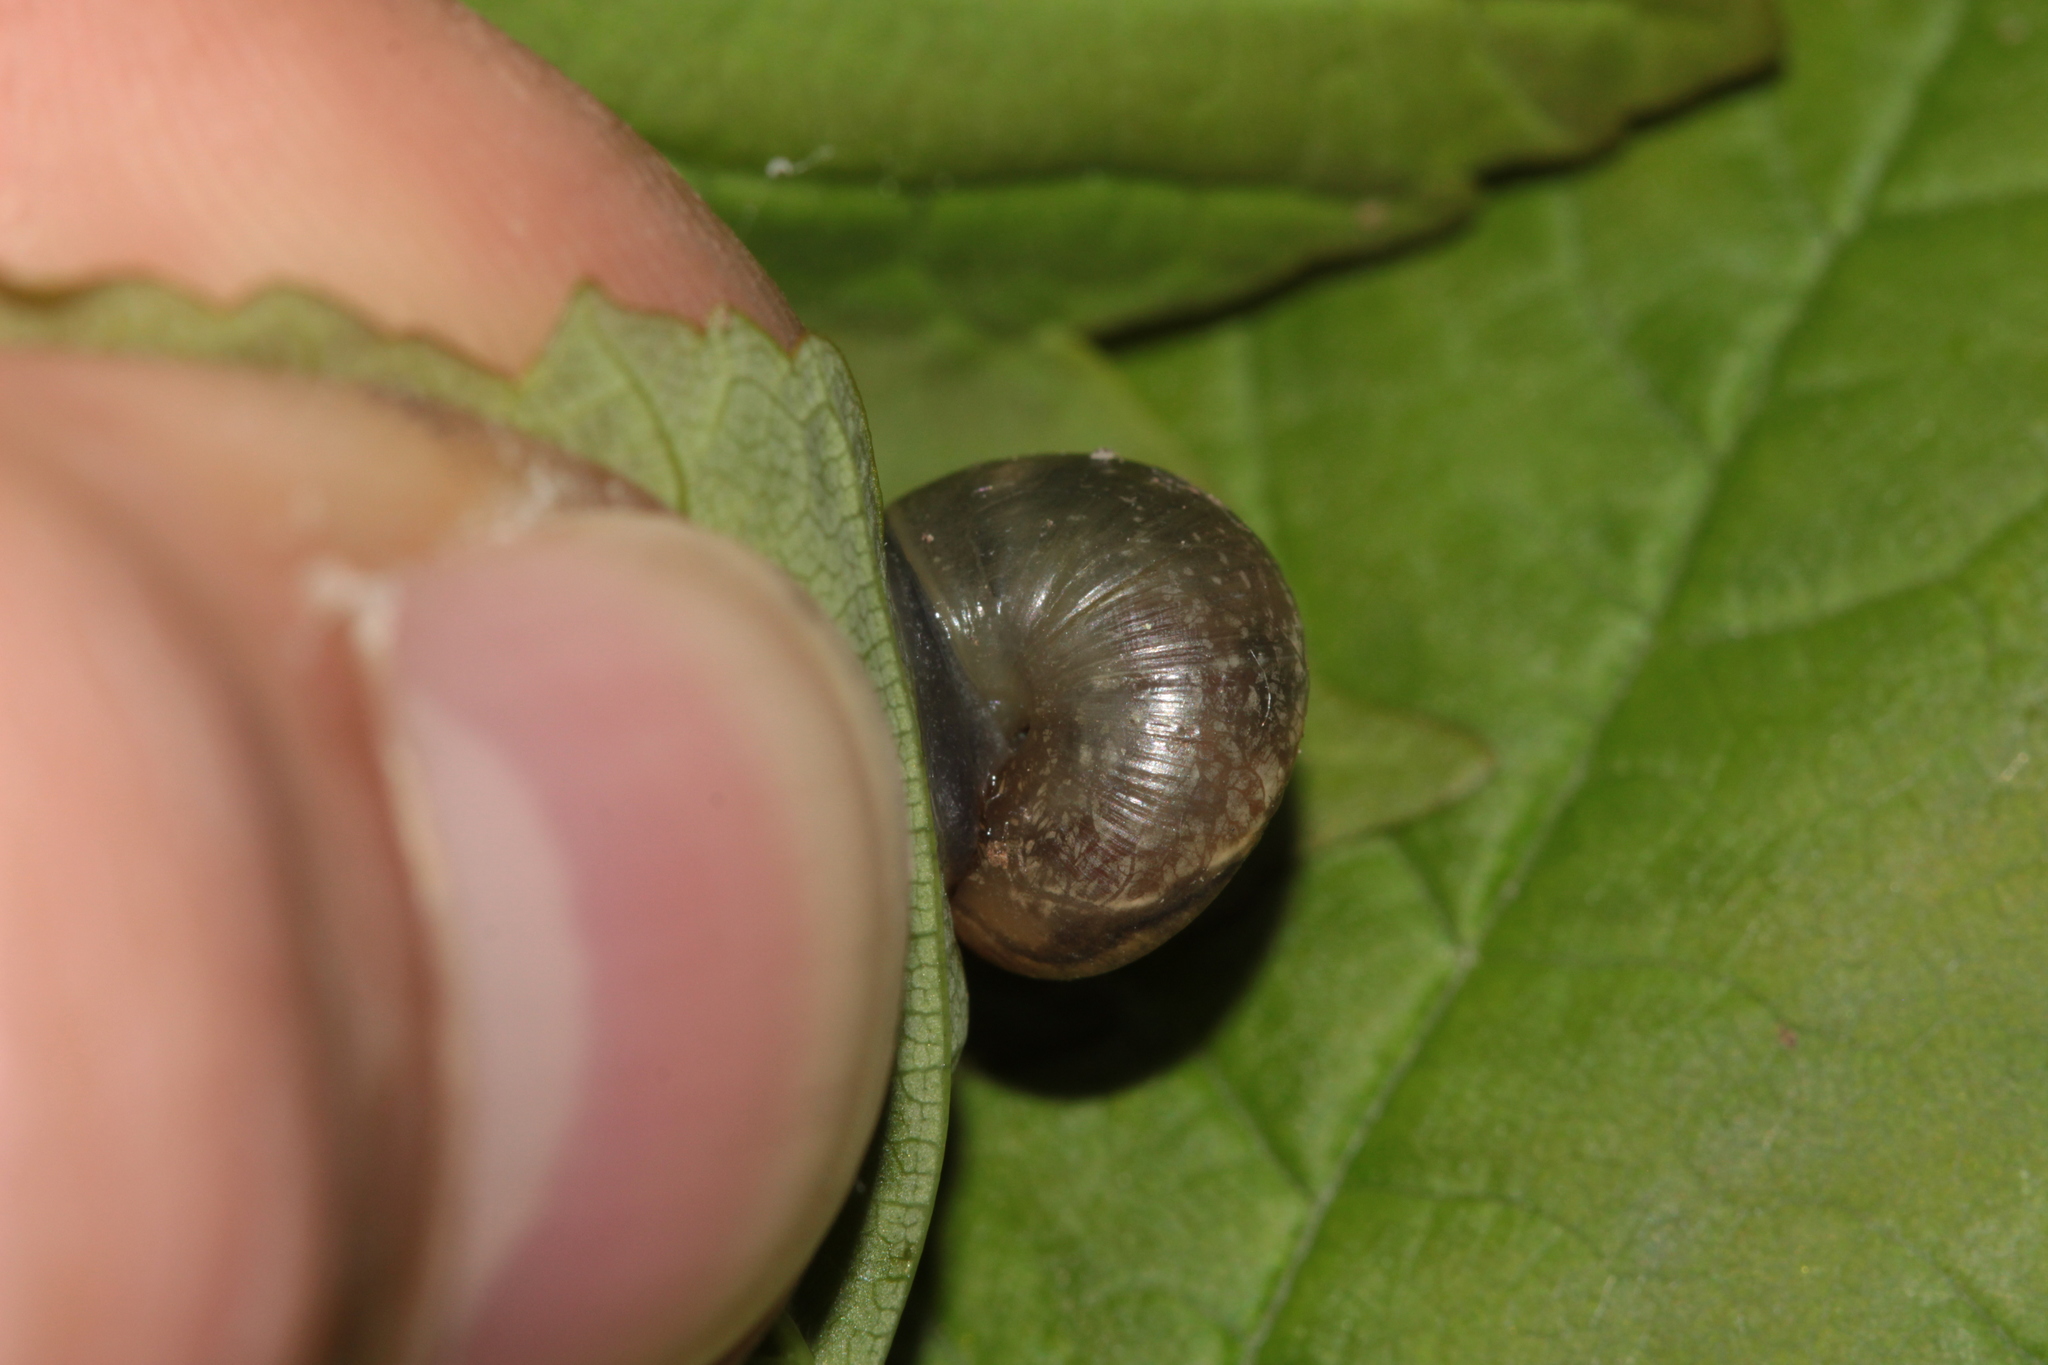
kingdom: Animalia
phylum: Mollusca
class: Gastropoda
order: Stylommatophora
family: Helicidae
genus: Arianta
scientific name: Arianta arbustorum
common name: Copse snail
